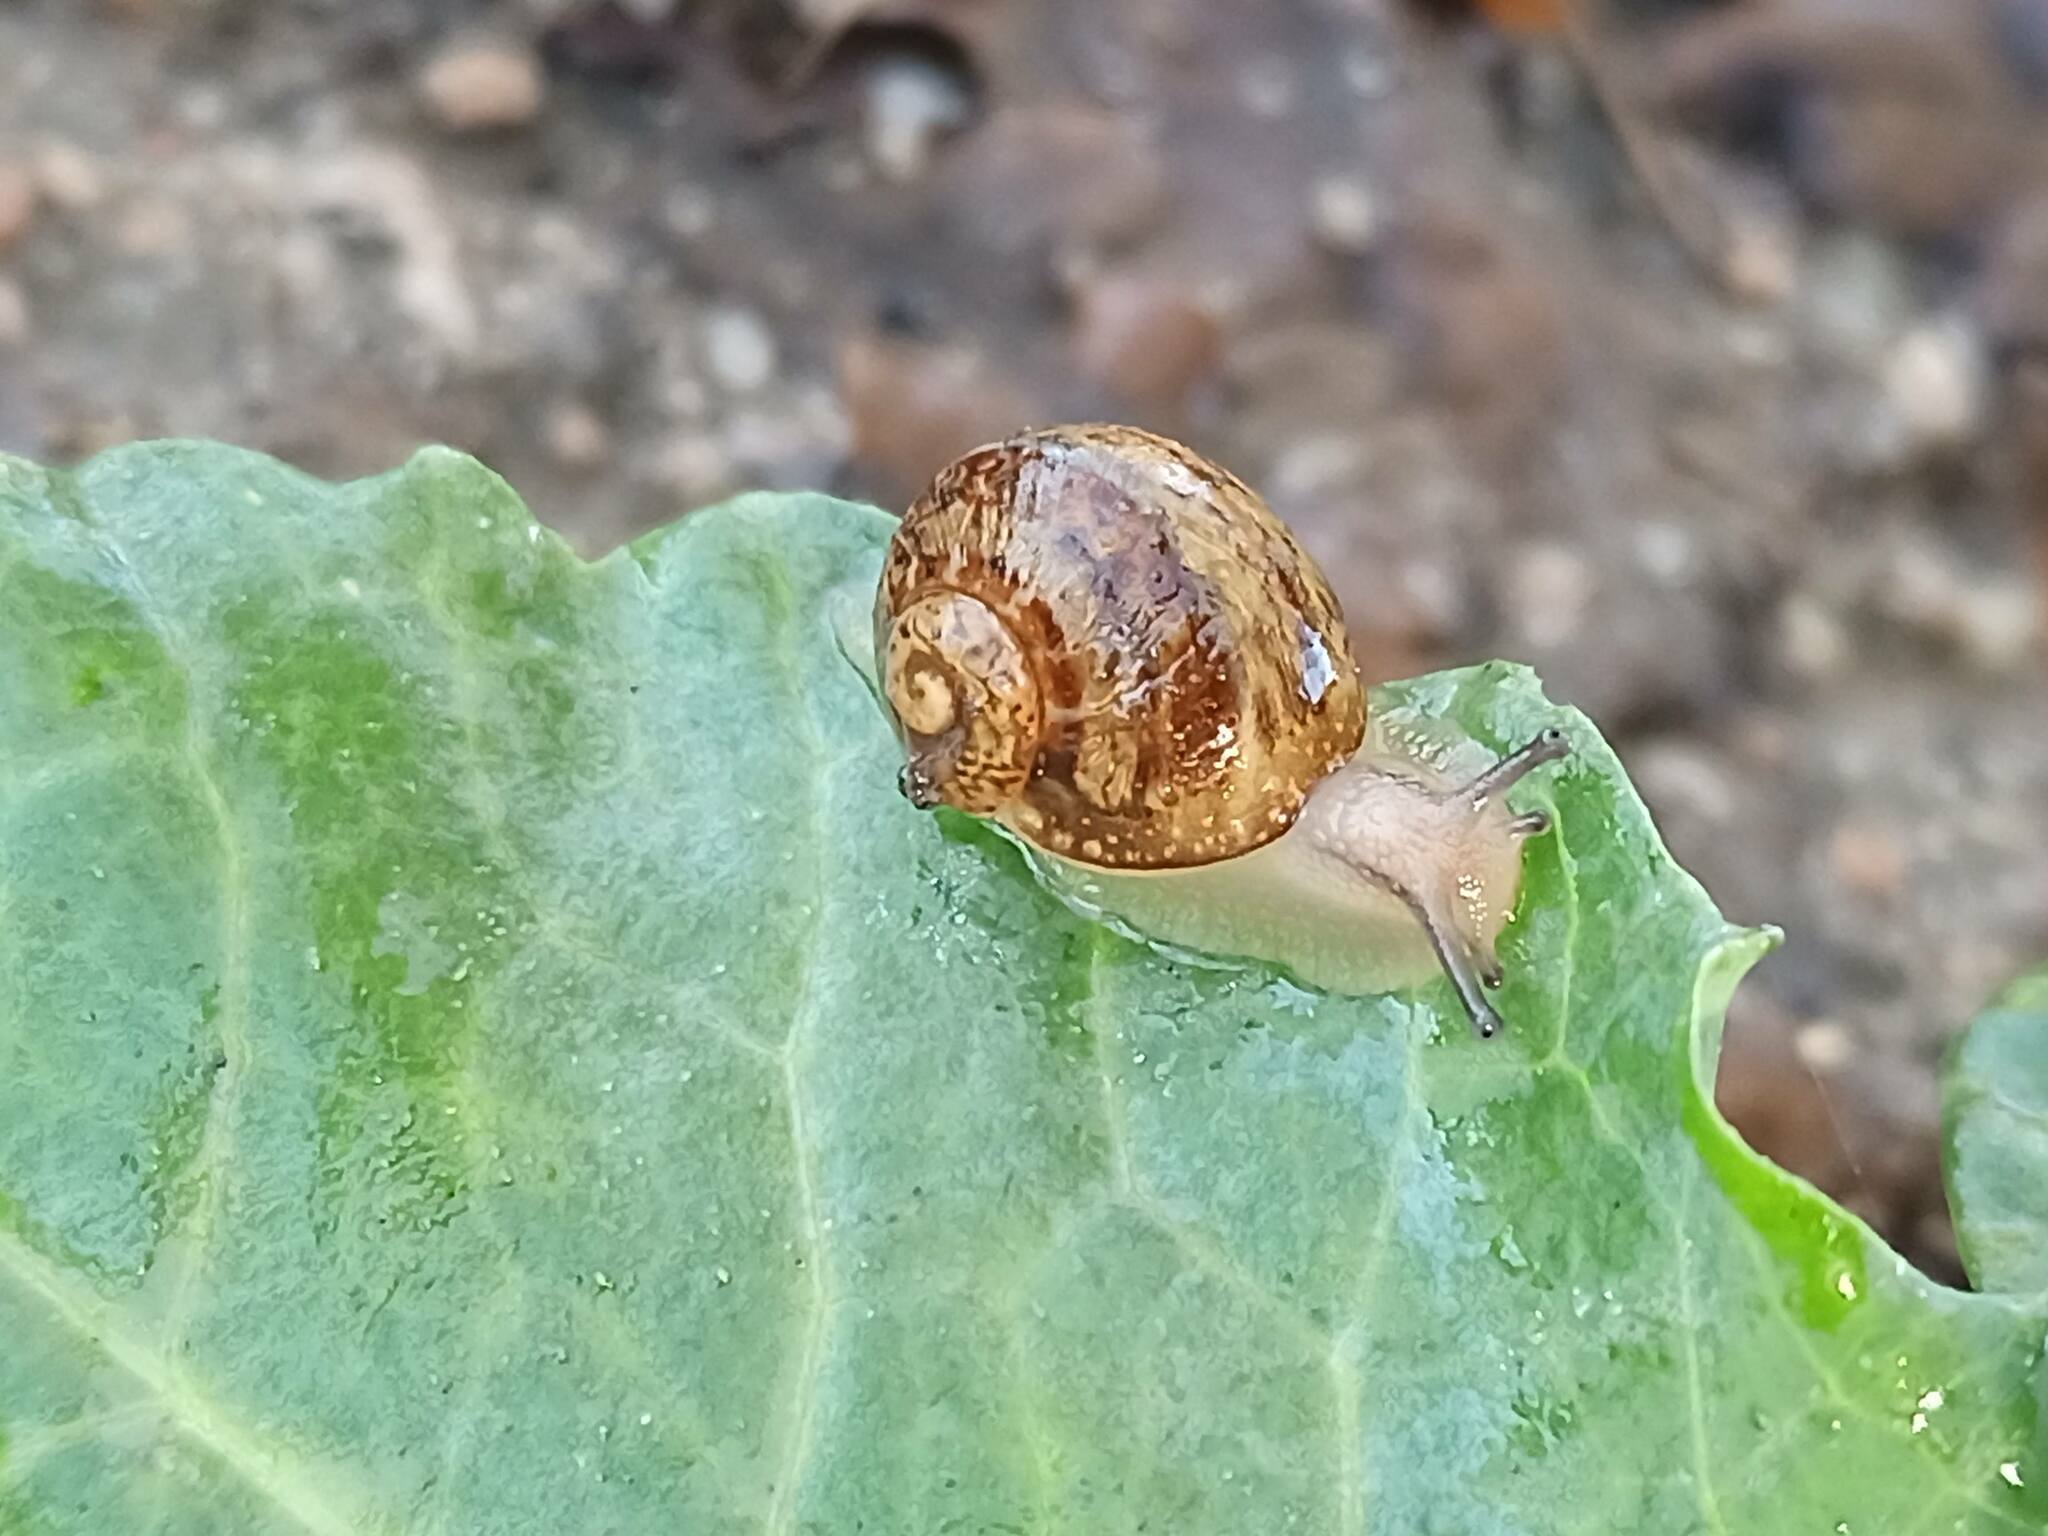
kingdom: Animalia
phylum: Mollusca
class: Gastropoda
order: Stylommatophora
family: Helicidae
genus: Cornu
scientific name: Cornu aspersum
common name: Brown garden snail
